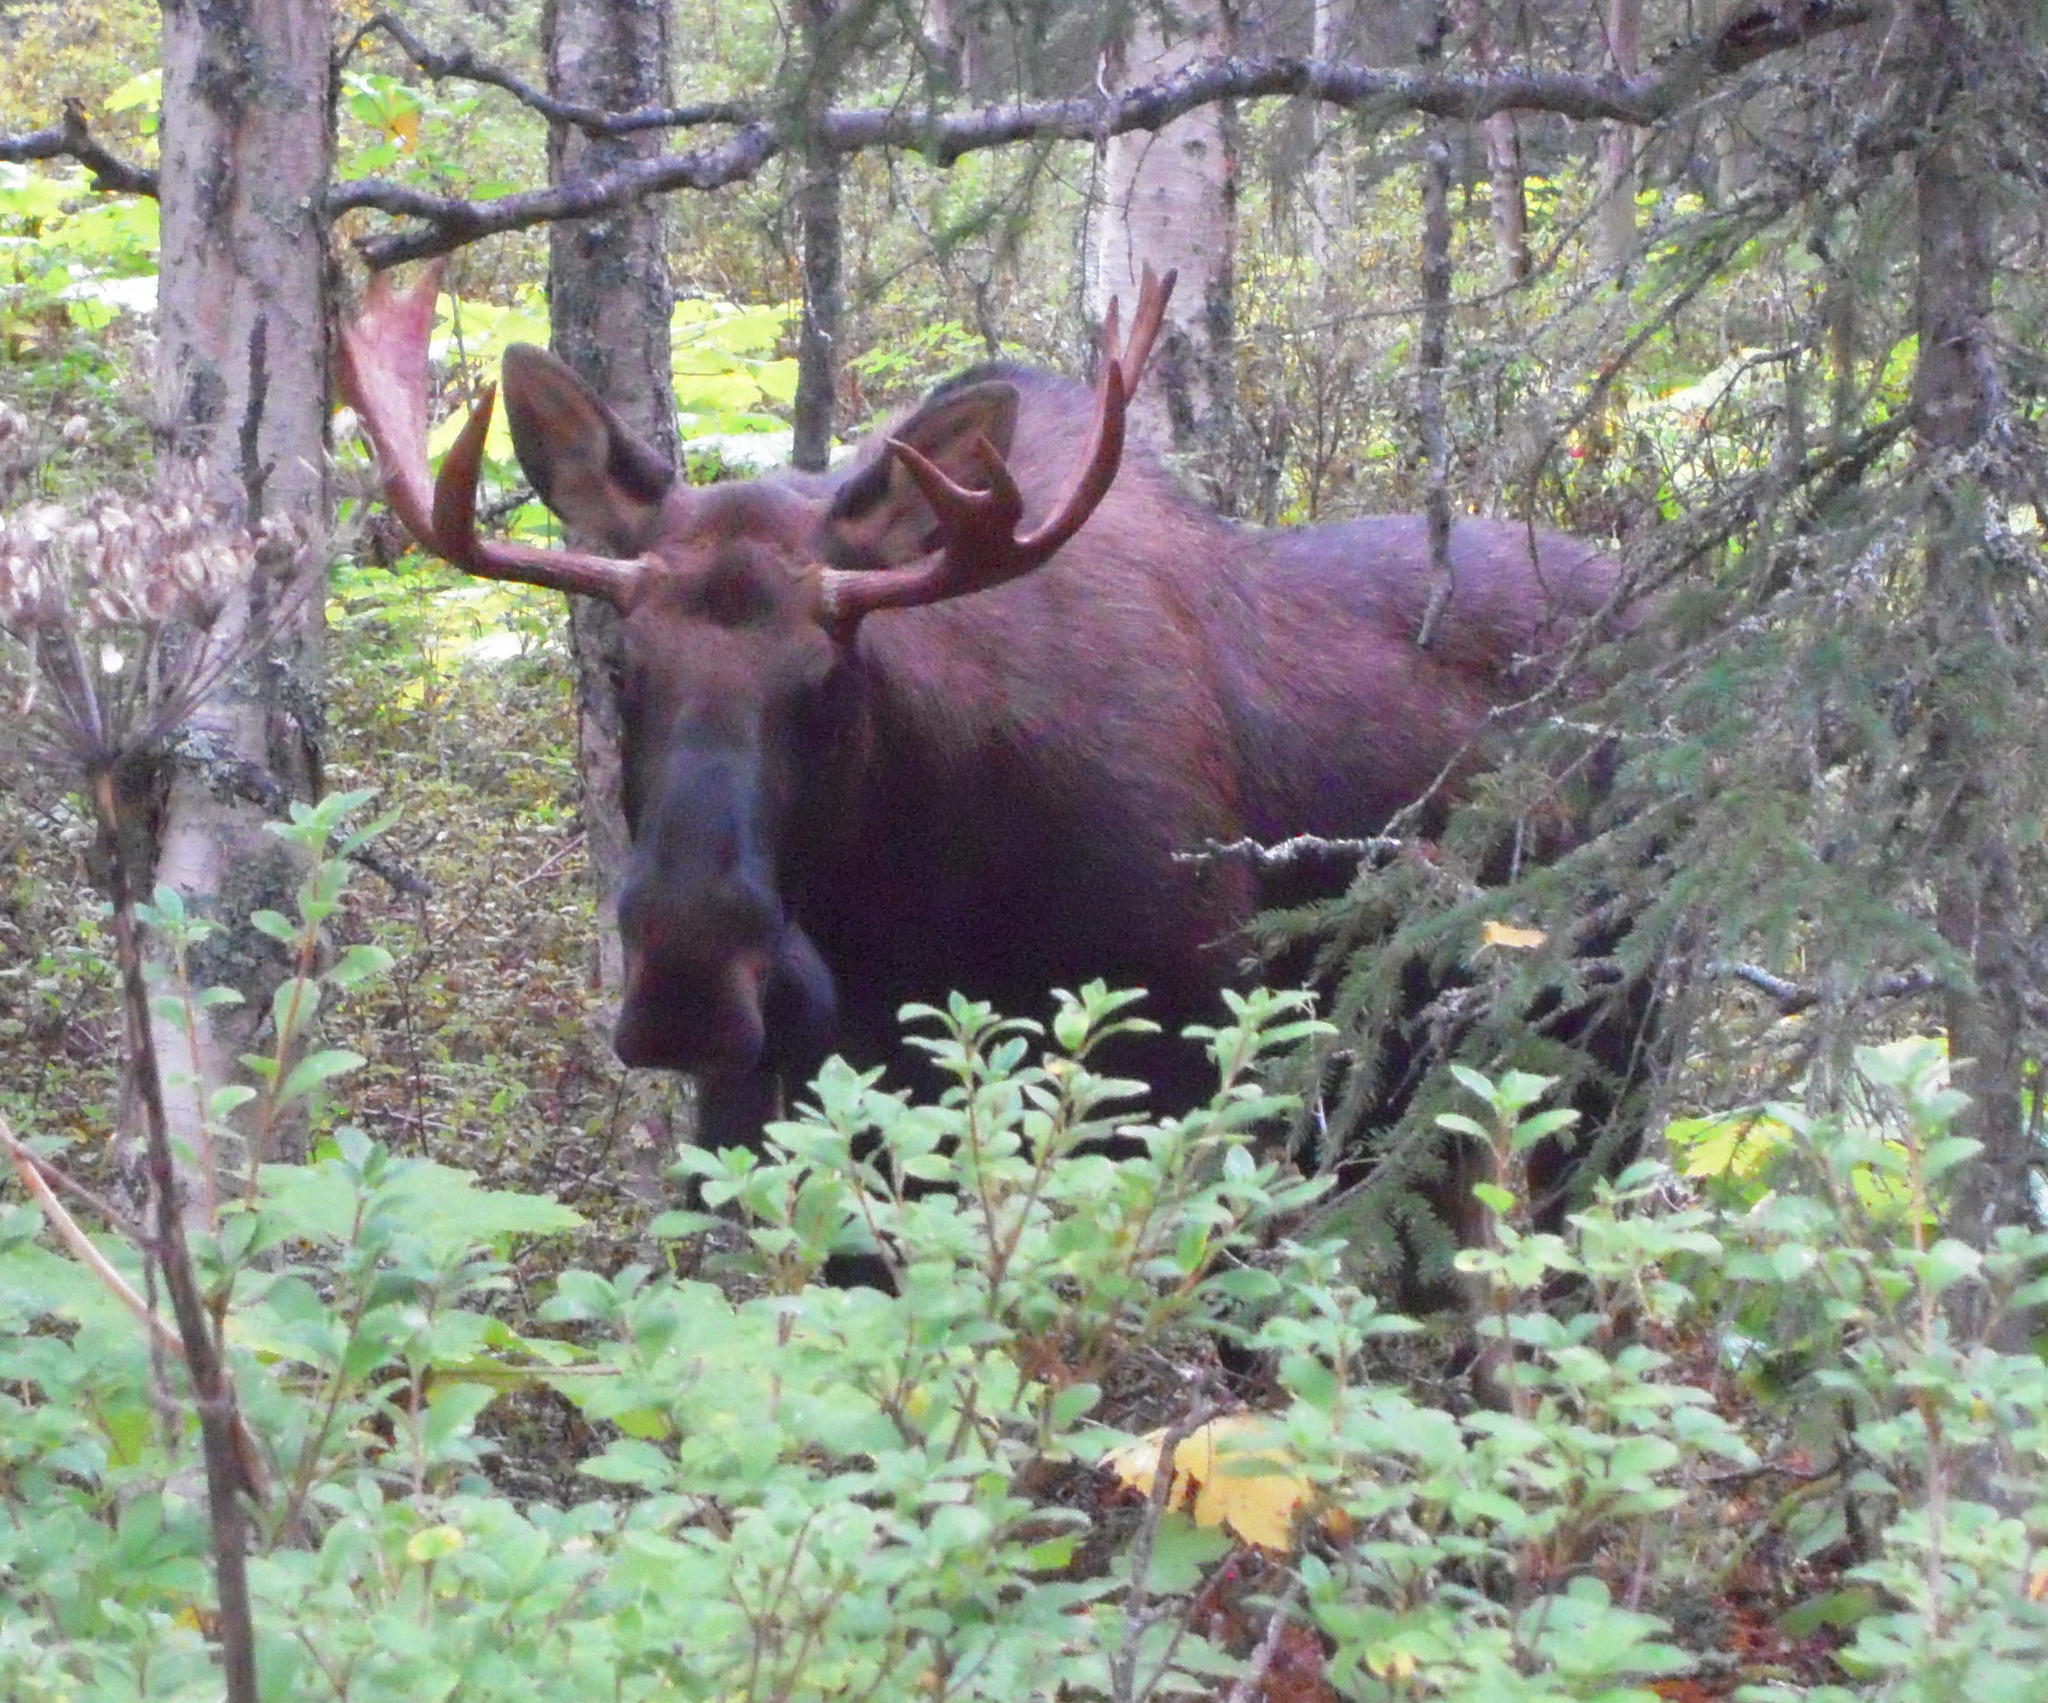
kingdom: Animalia
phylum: Chordata
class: Mammalia
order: Artiodactyla
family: Cervidae
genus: Alces
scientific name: Alces alces
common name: Moose
